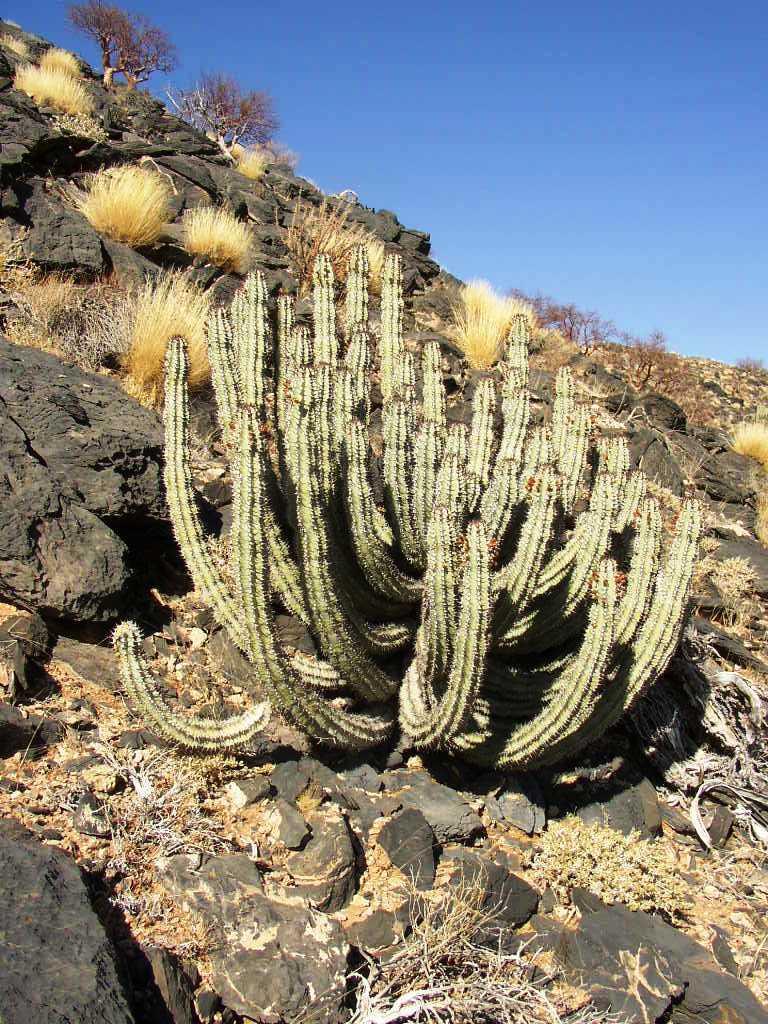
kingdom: Plantae
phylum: Tracheophyta
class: Magnoliopsida
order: Malpighiales
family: Euphorbiaceae
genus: Euphorbia
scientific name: Euphorbia virosa
